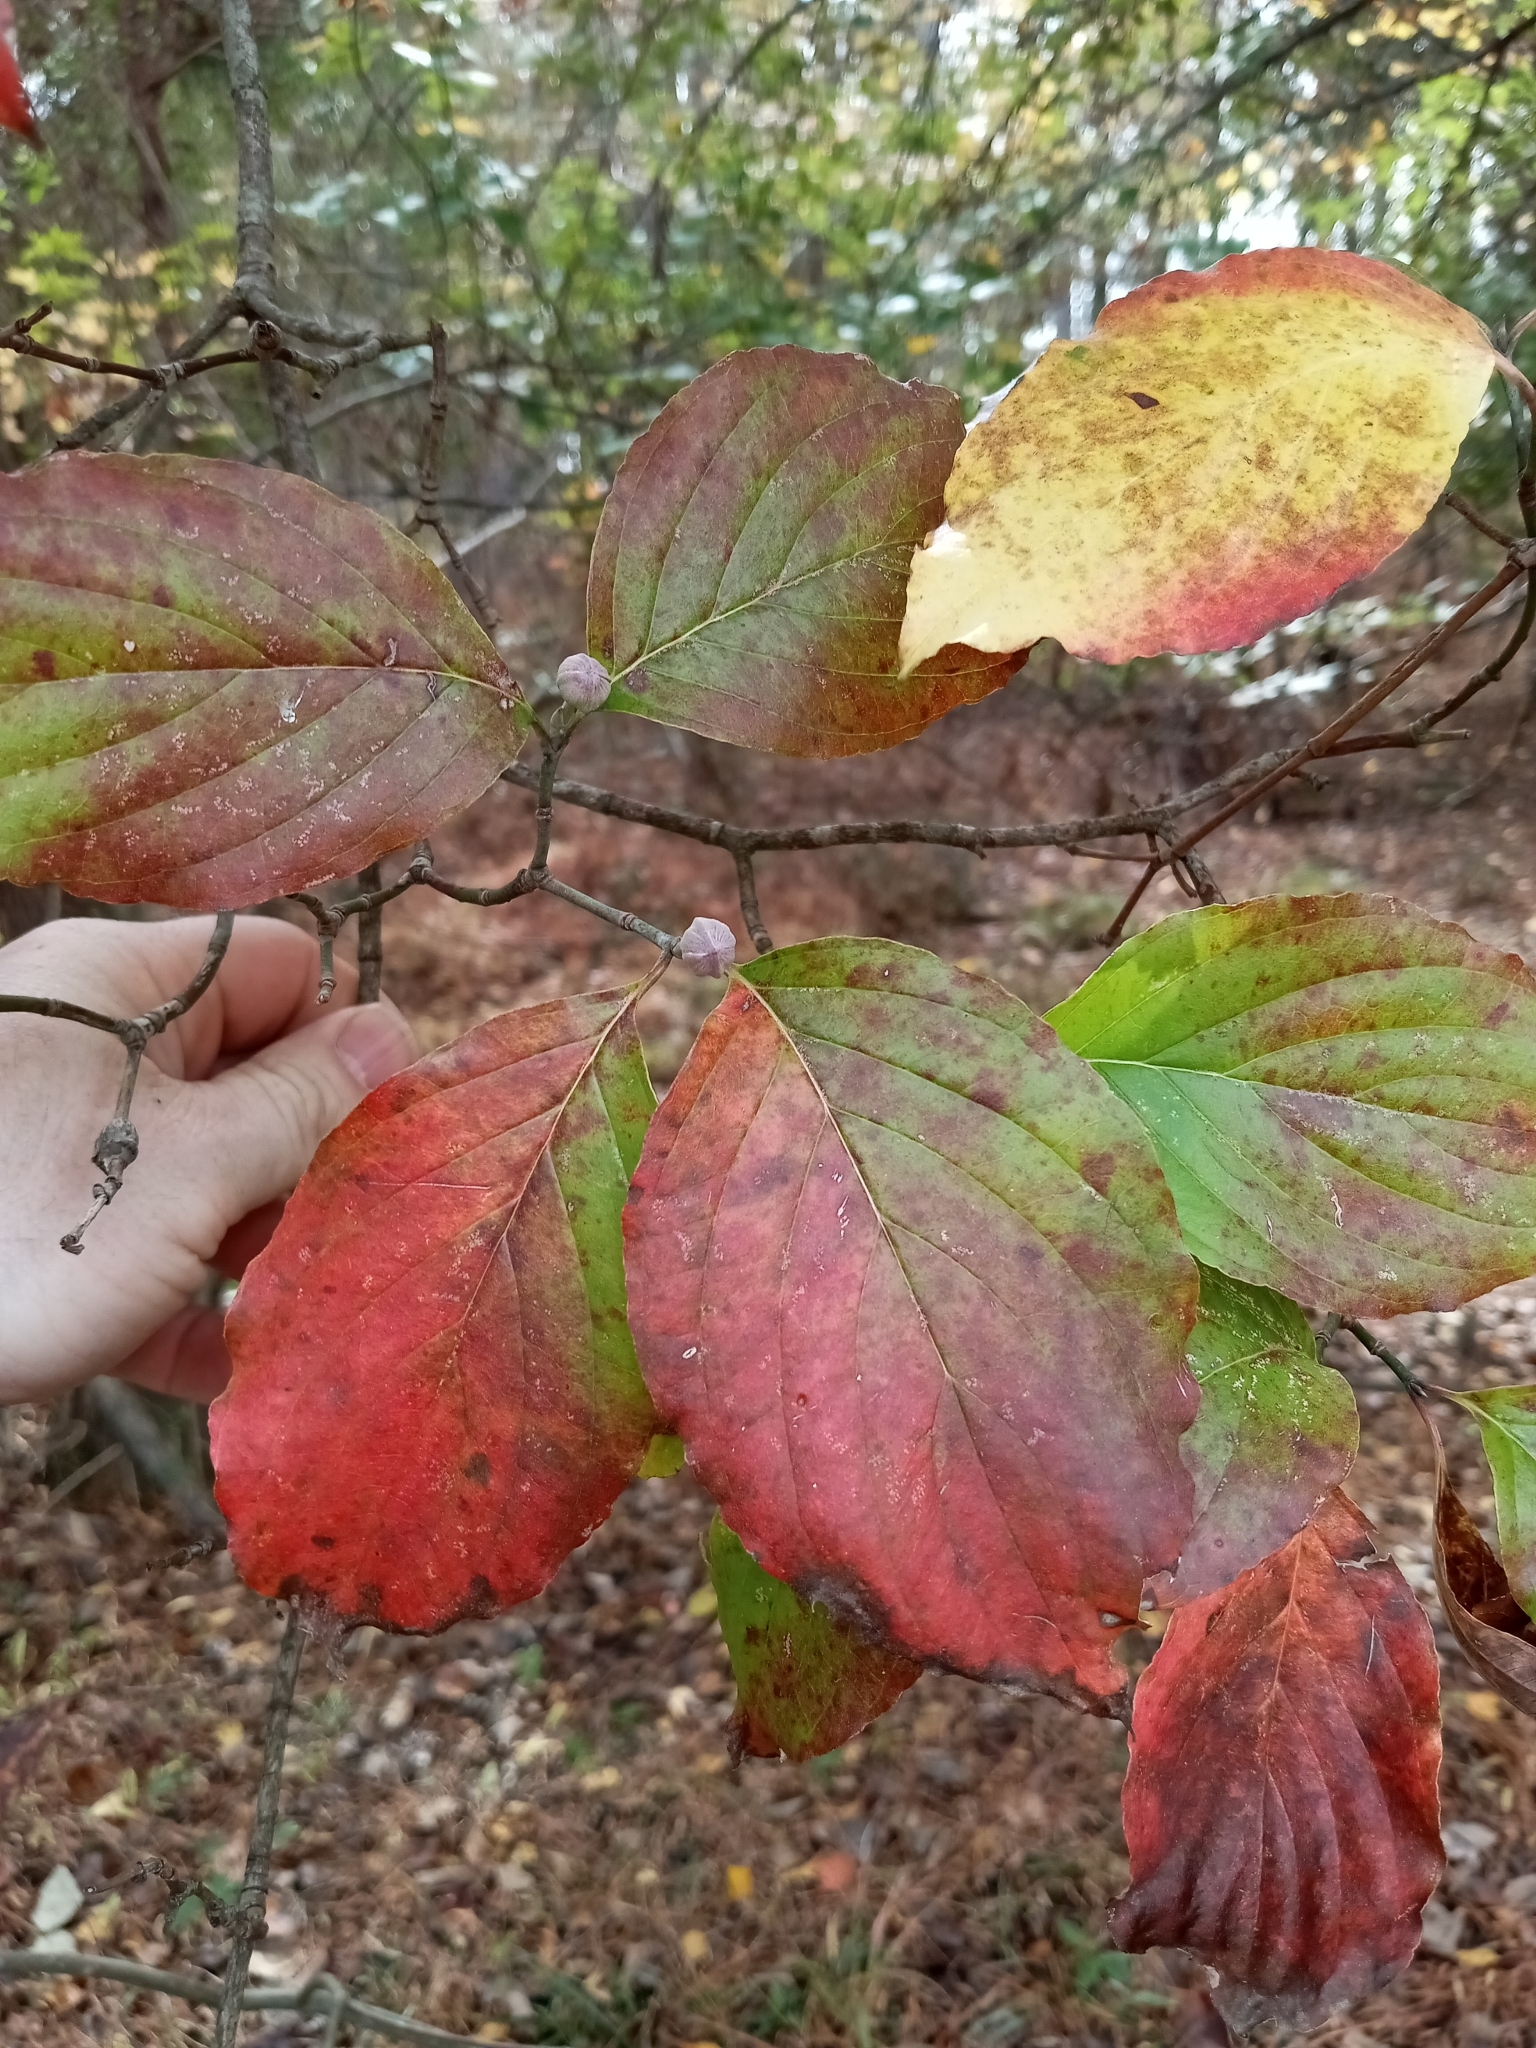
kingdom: Plantae
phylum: Tracheophyta
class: Magnoliopsida
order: Cornales
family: Cornaceae
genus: Cornus
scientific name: Cornus florida
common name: Flowering dogwood
